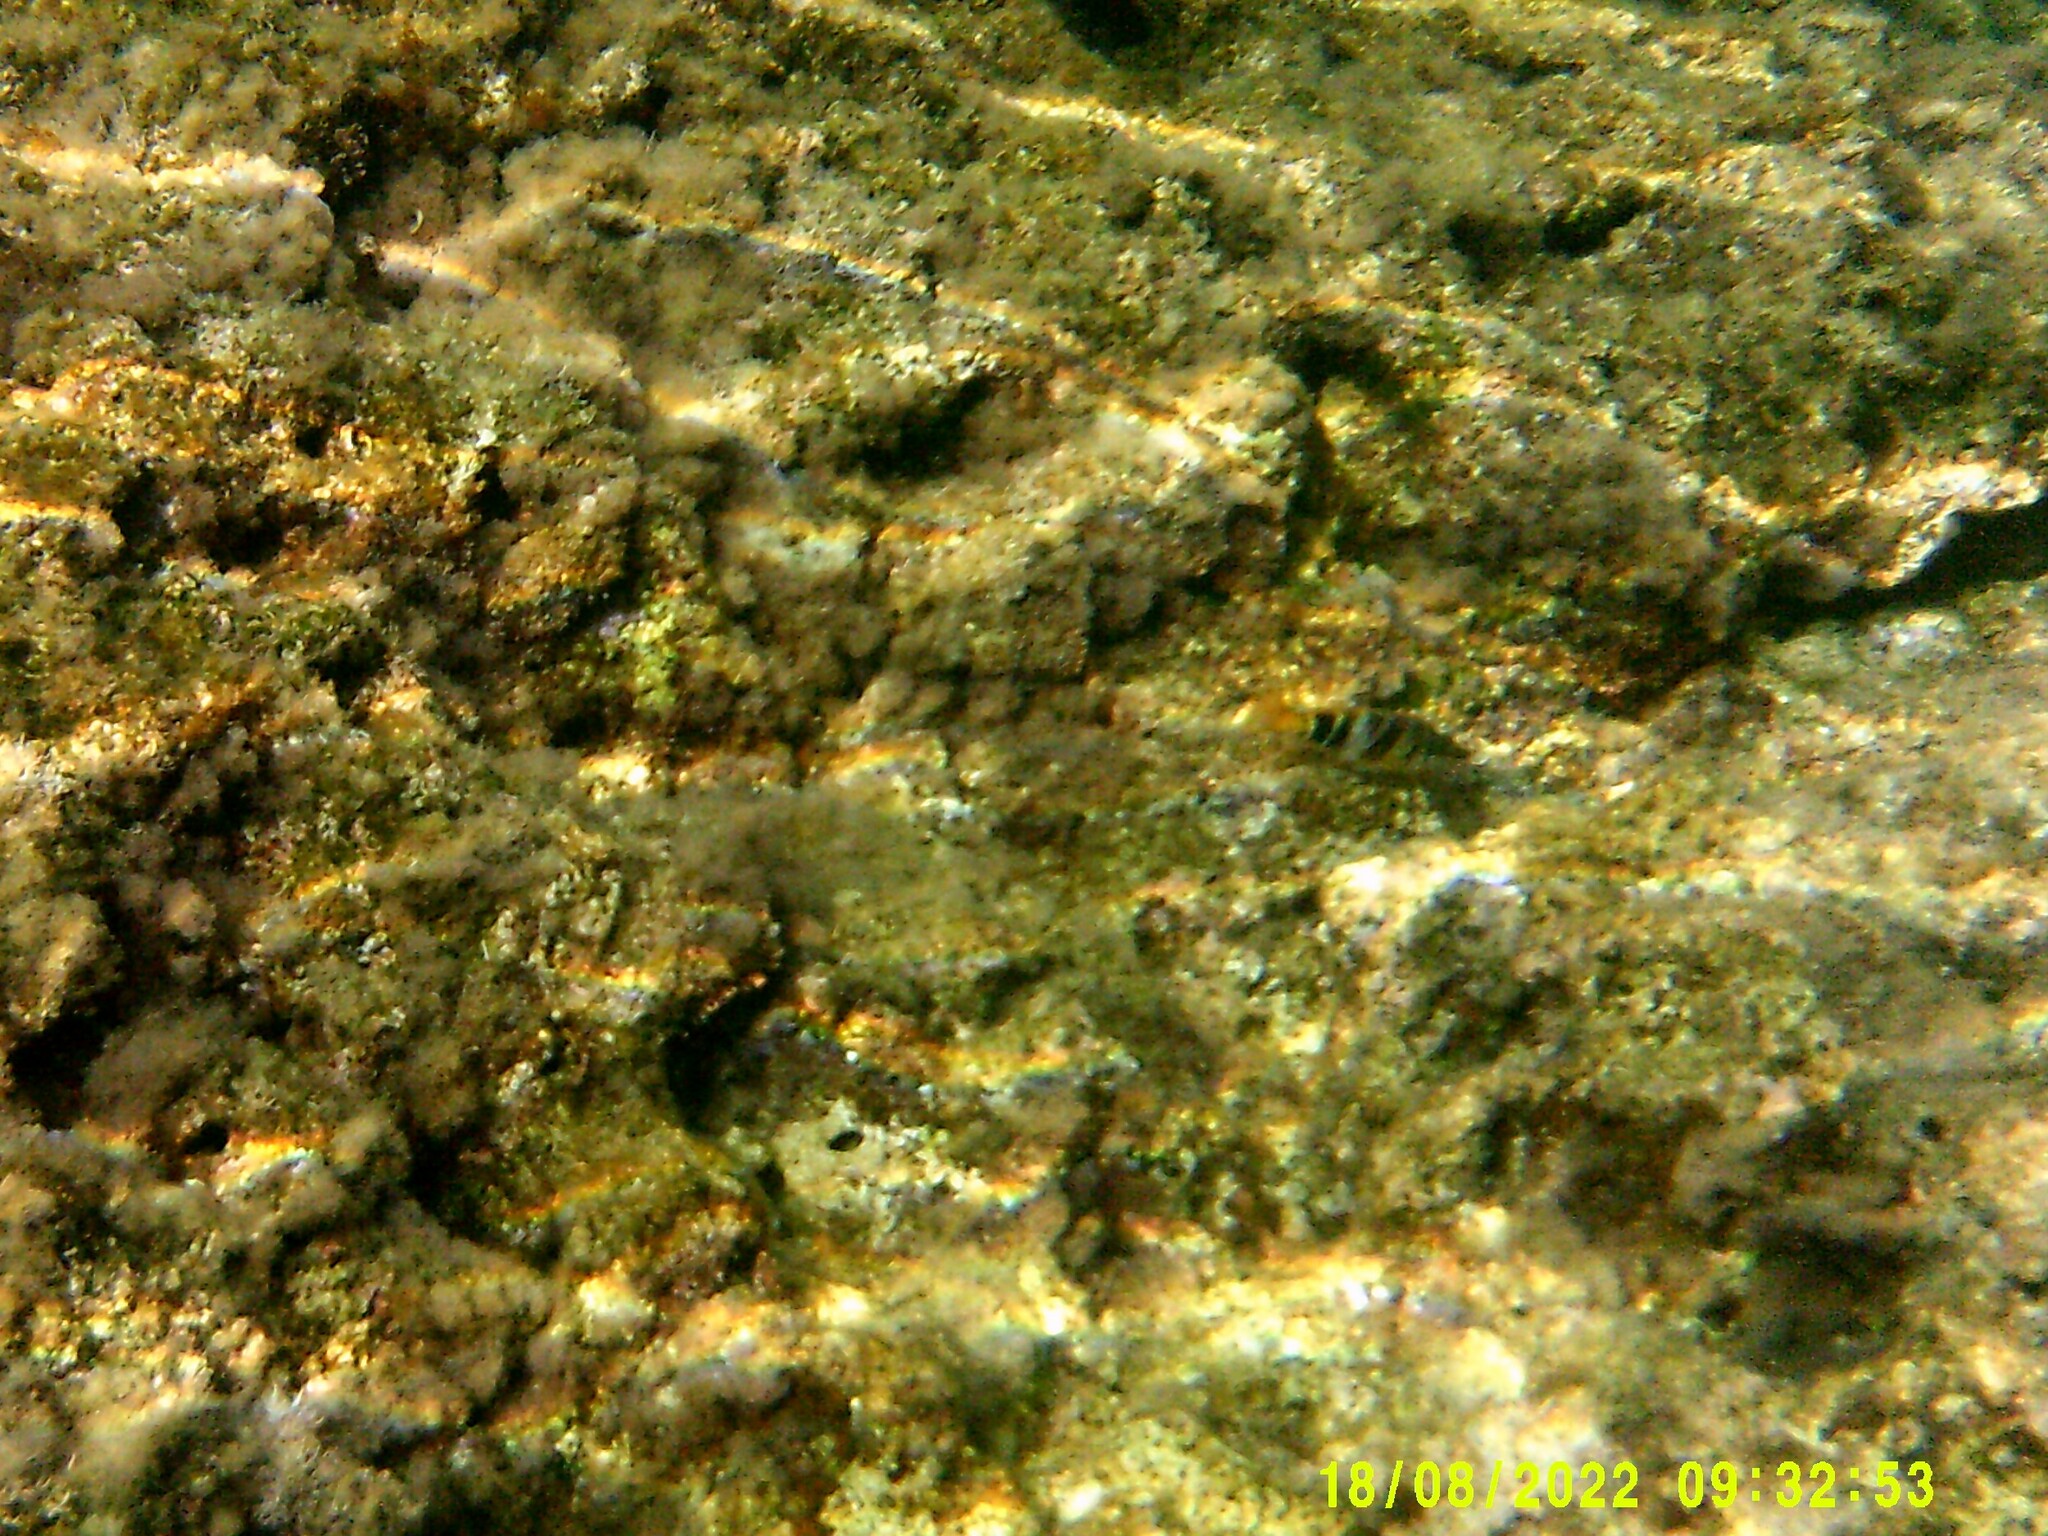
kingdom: Animalia
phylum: Chordata
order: Perciformes
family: Serranidae
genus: Serranus
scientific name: Serranus scriba
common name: Painted comber
